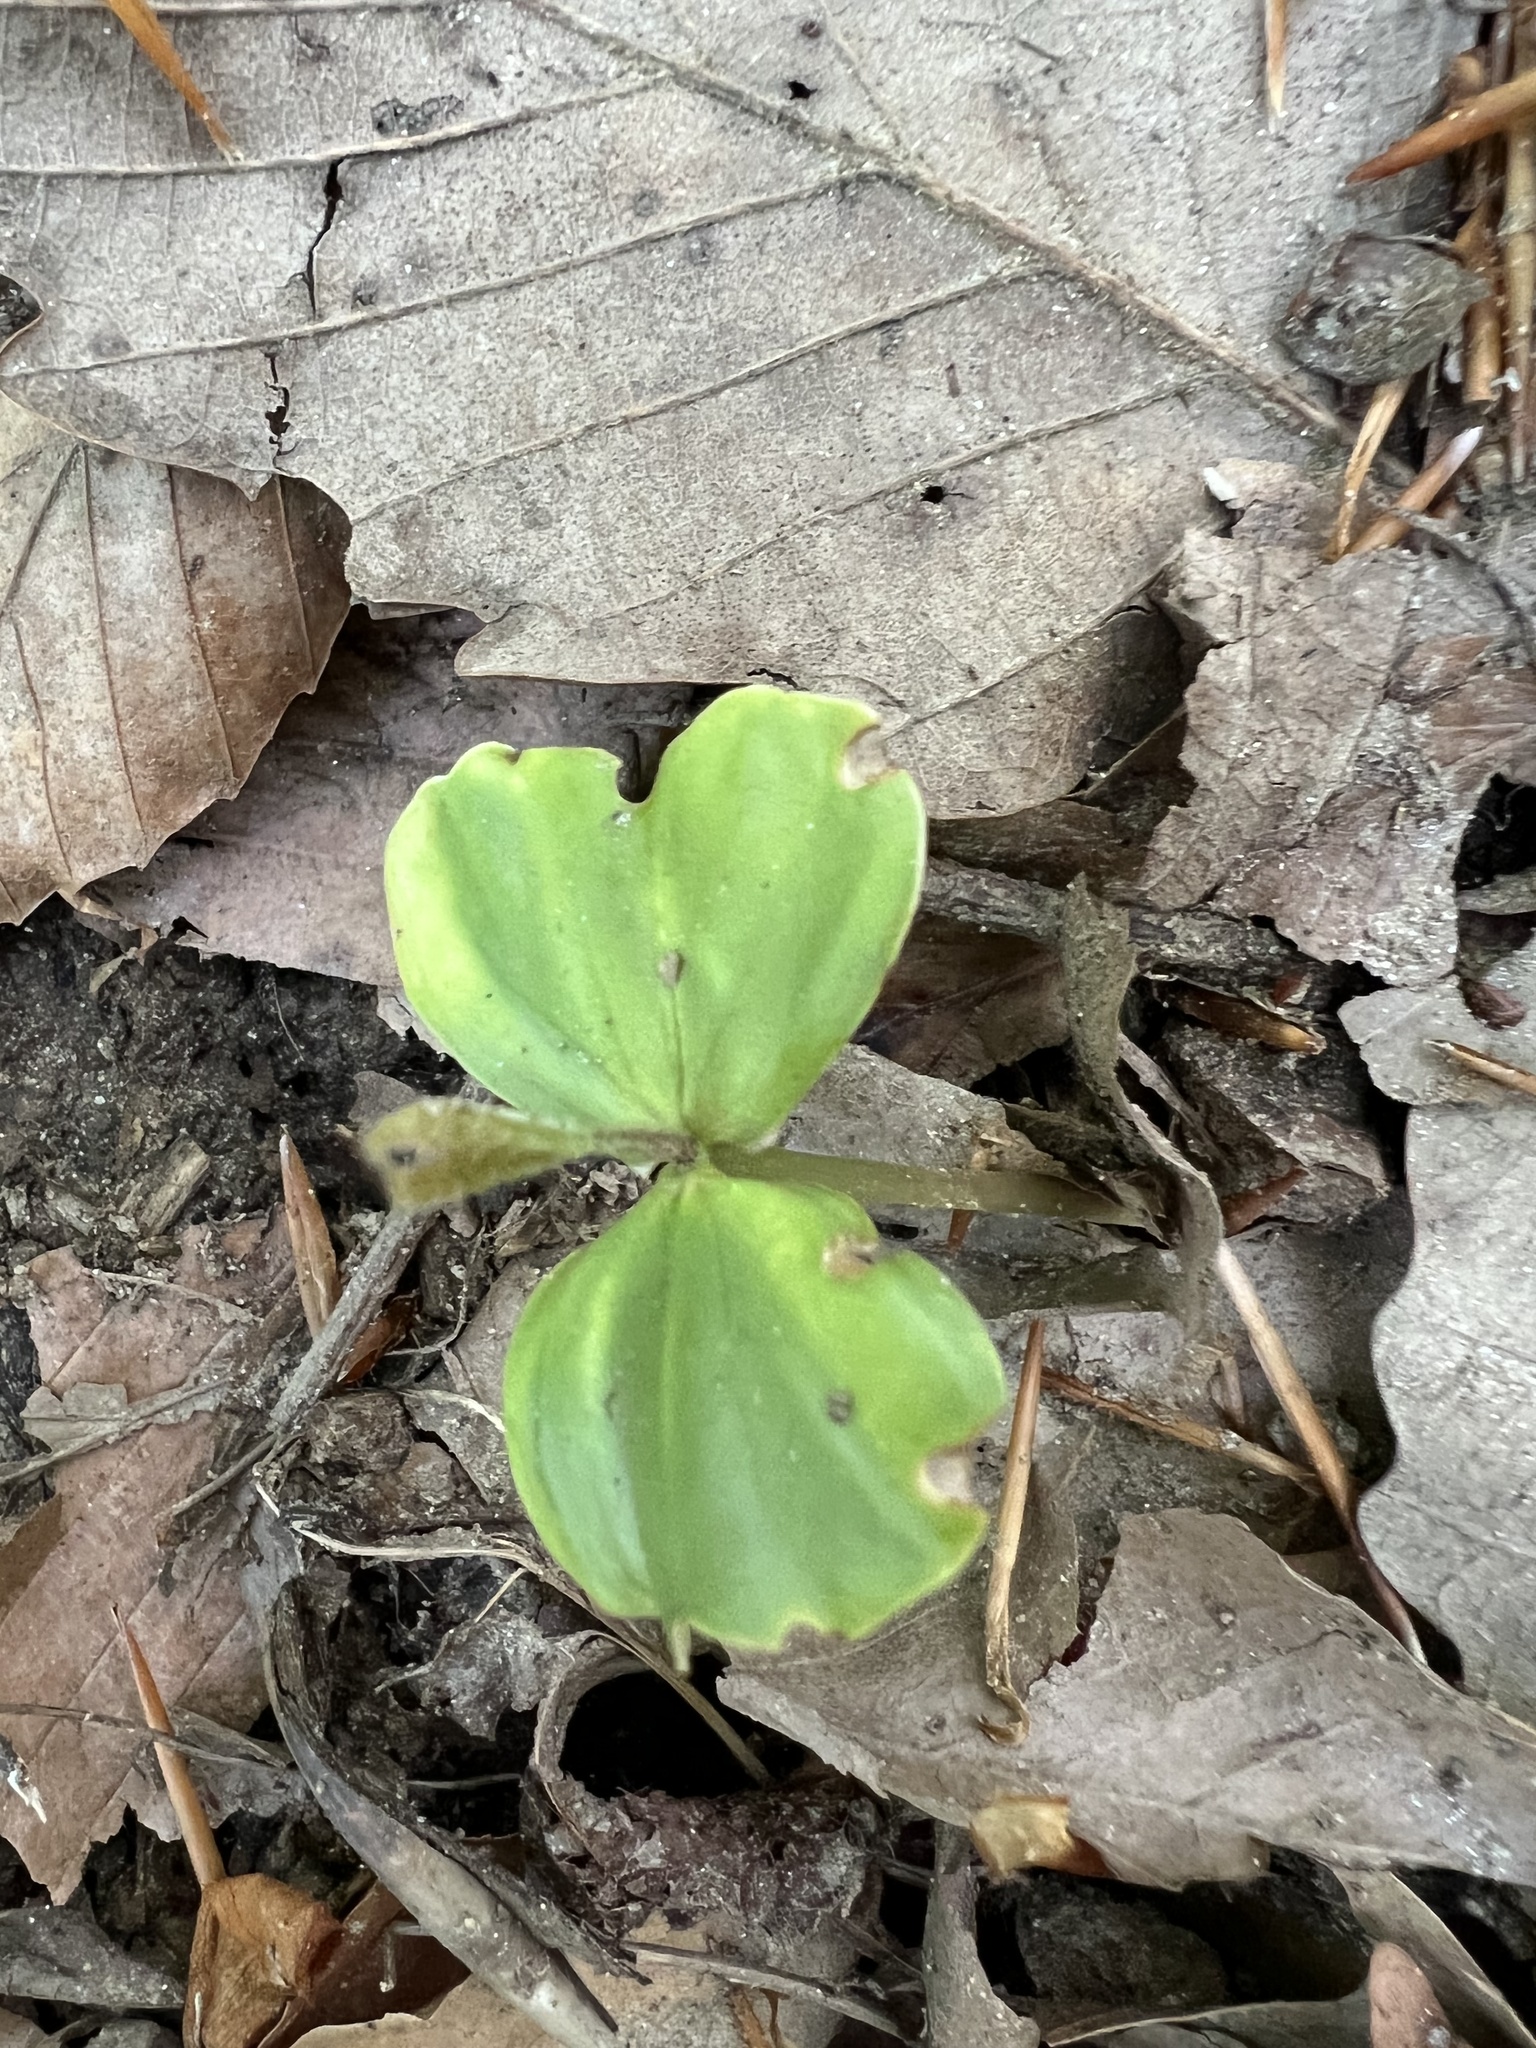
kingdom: Plantae
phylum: Tracheophyta
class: Magnoliopsida
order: Fagales
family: Fagaceae
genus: Fagus
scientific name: Fagus grandifolia
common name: American beech
